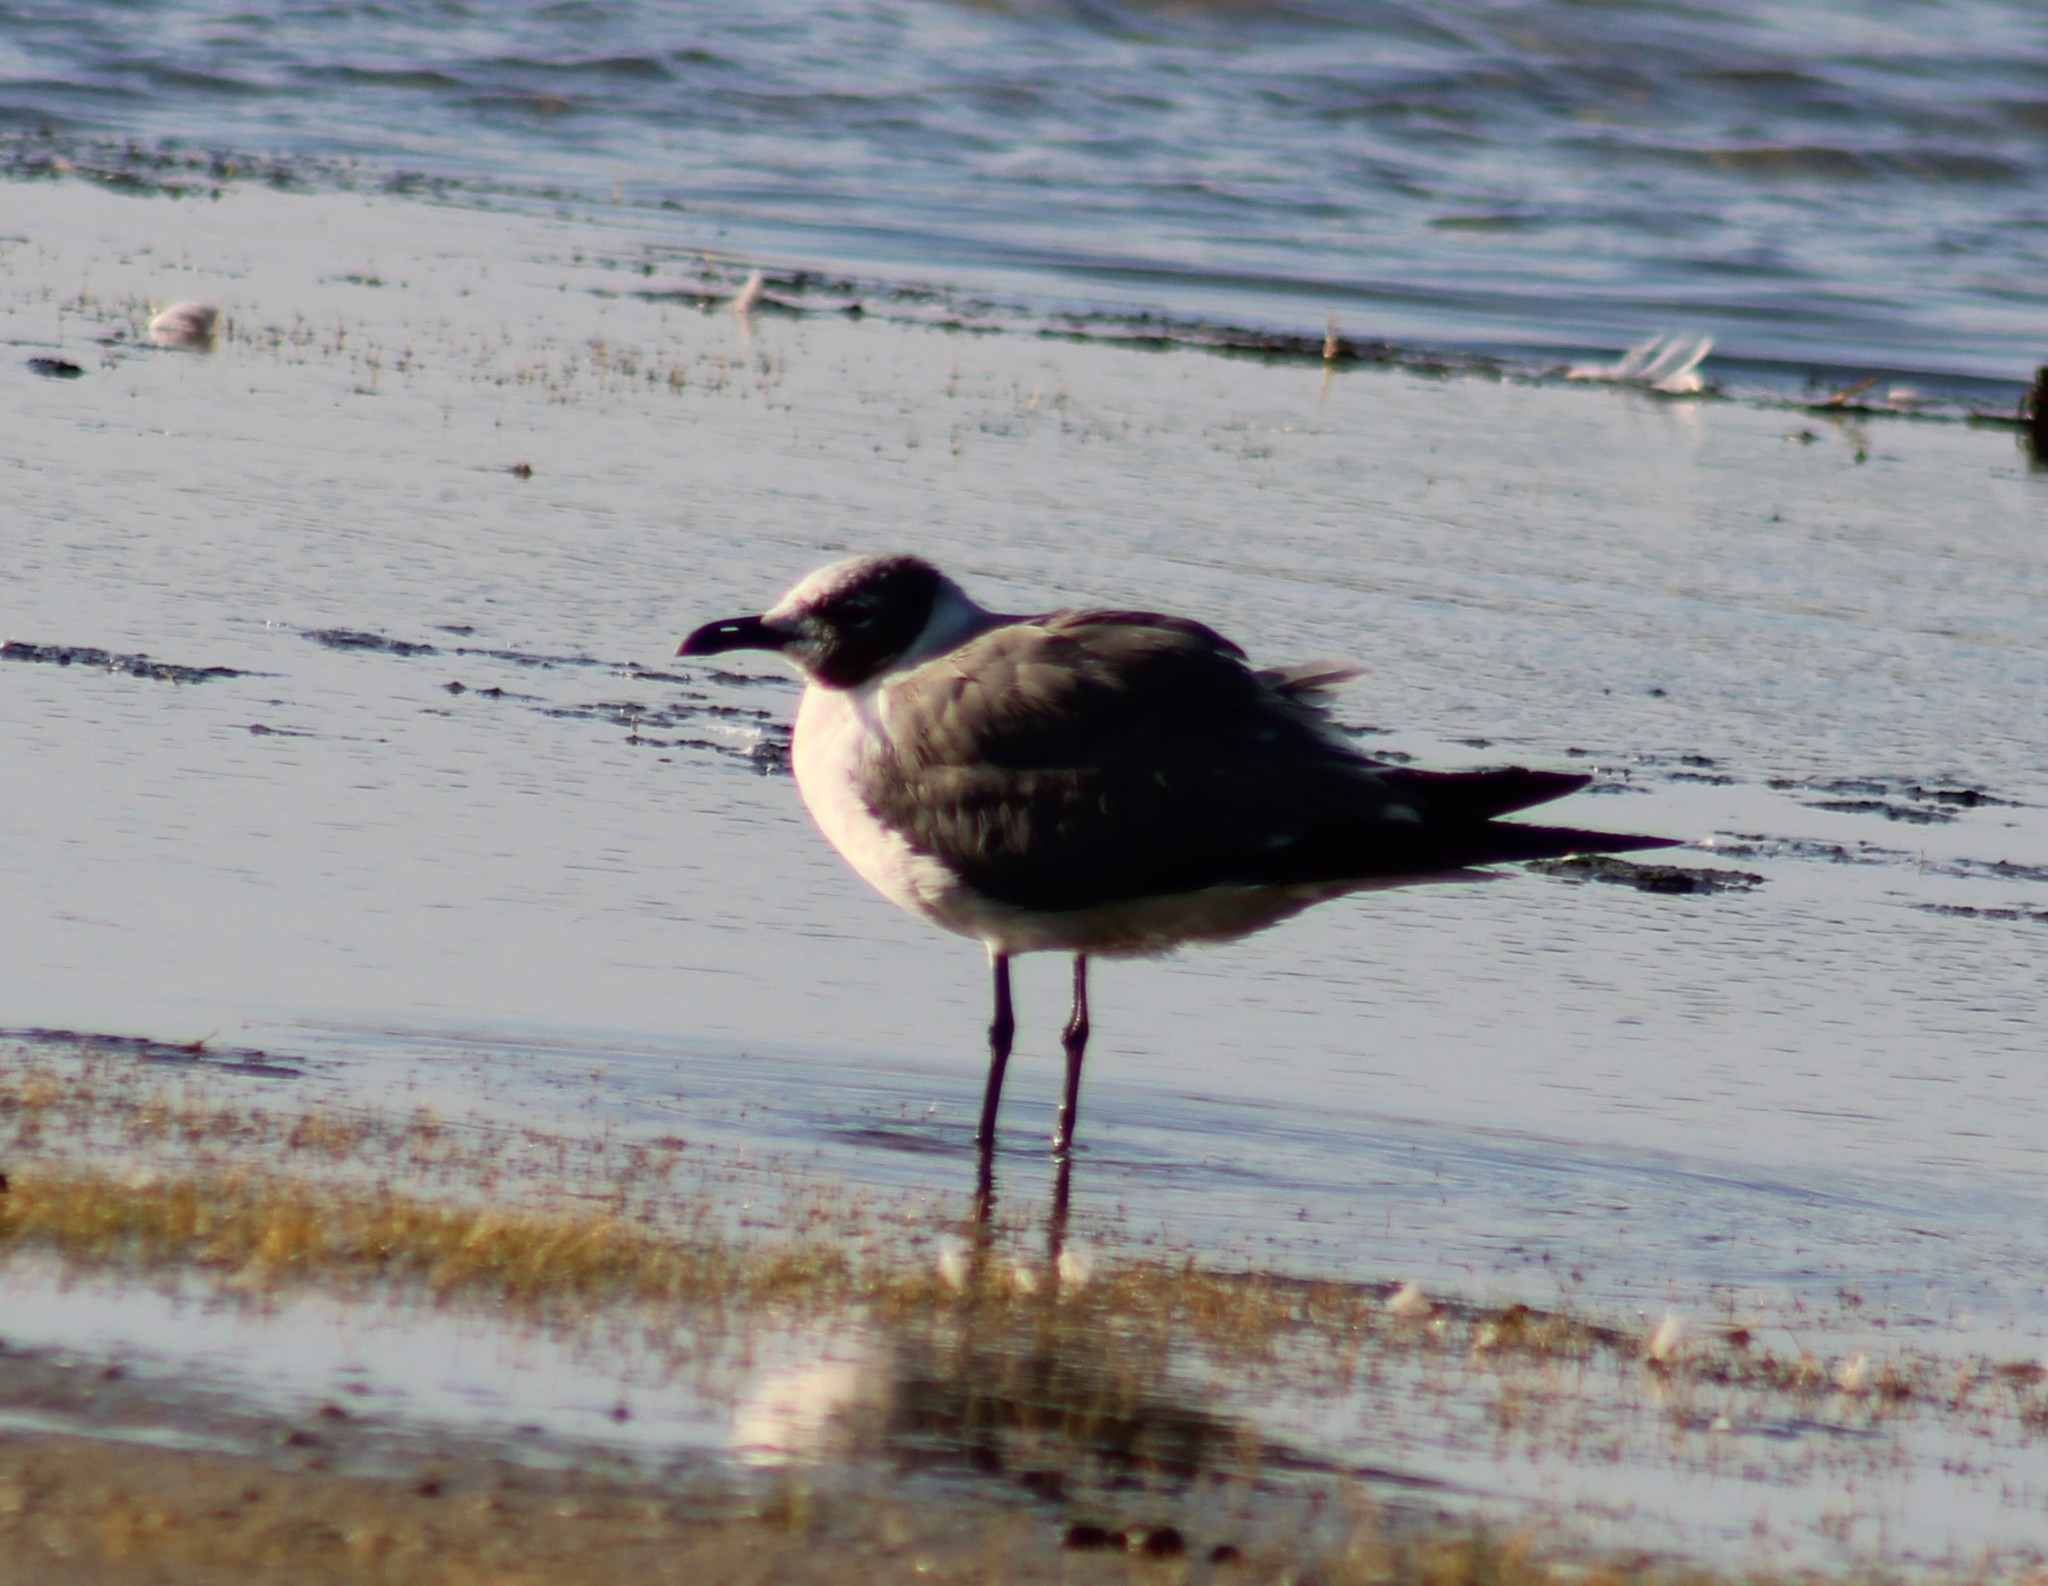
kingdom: Animalia
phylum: Chordata
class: Aves
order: Charadriiformes
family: Laridae
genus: Leucophaeus
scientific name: Leucophaeus atricilla
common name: Laughing gull
